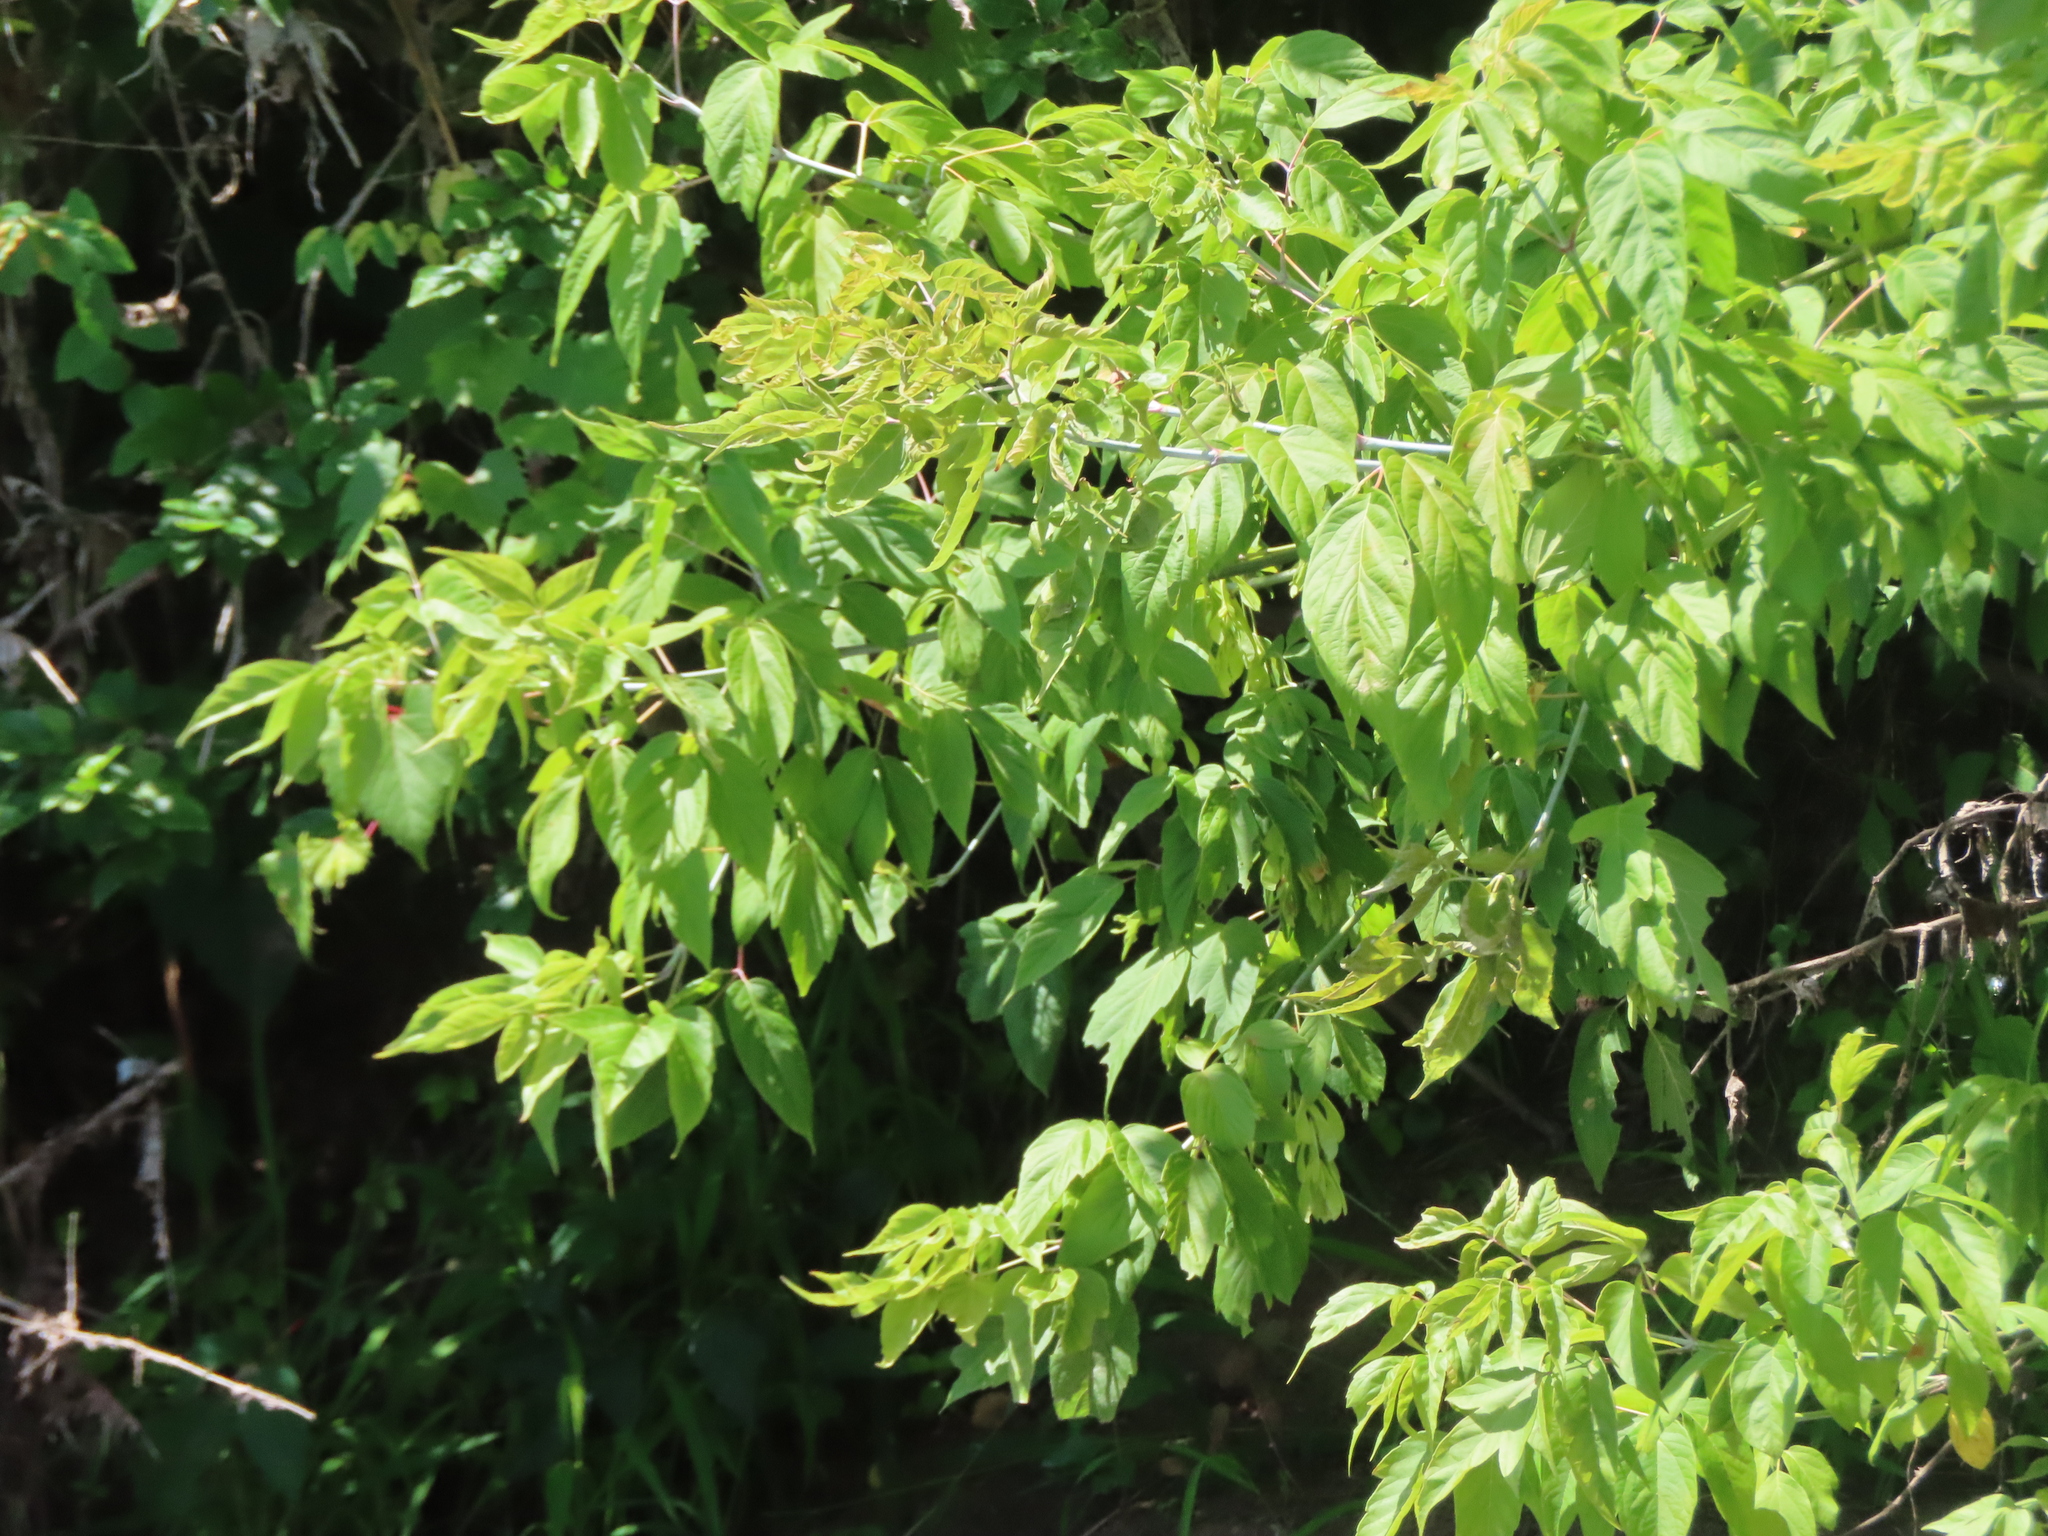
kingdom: Plantae
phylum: Tracheophyta
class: Magnoliopsida
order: Sapindales
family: Sapindaceae
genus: Acer
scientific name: Acer negundo
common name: Ashleaf maple
